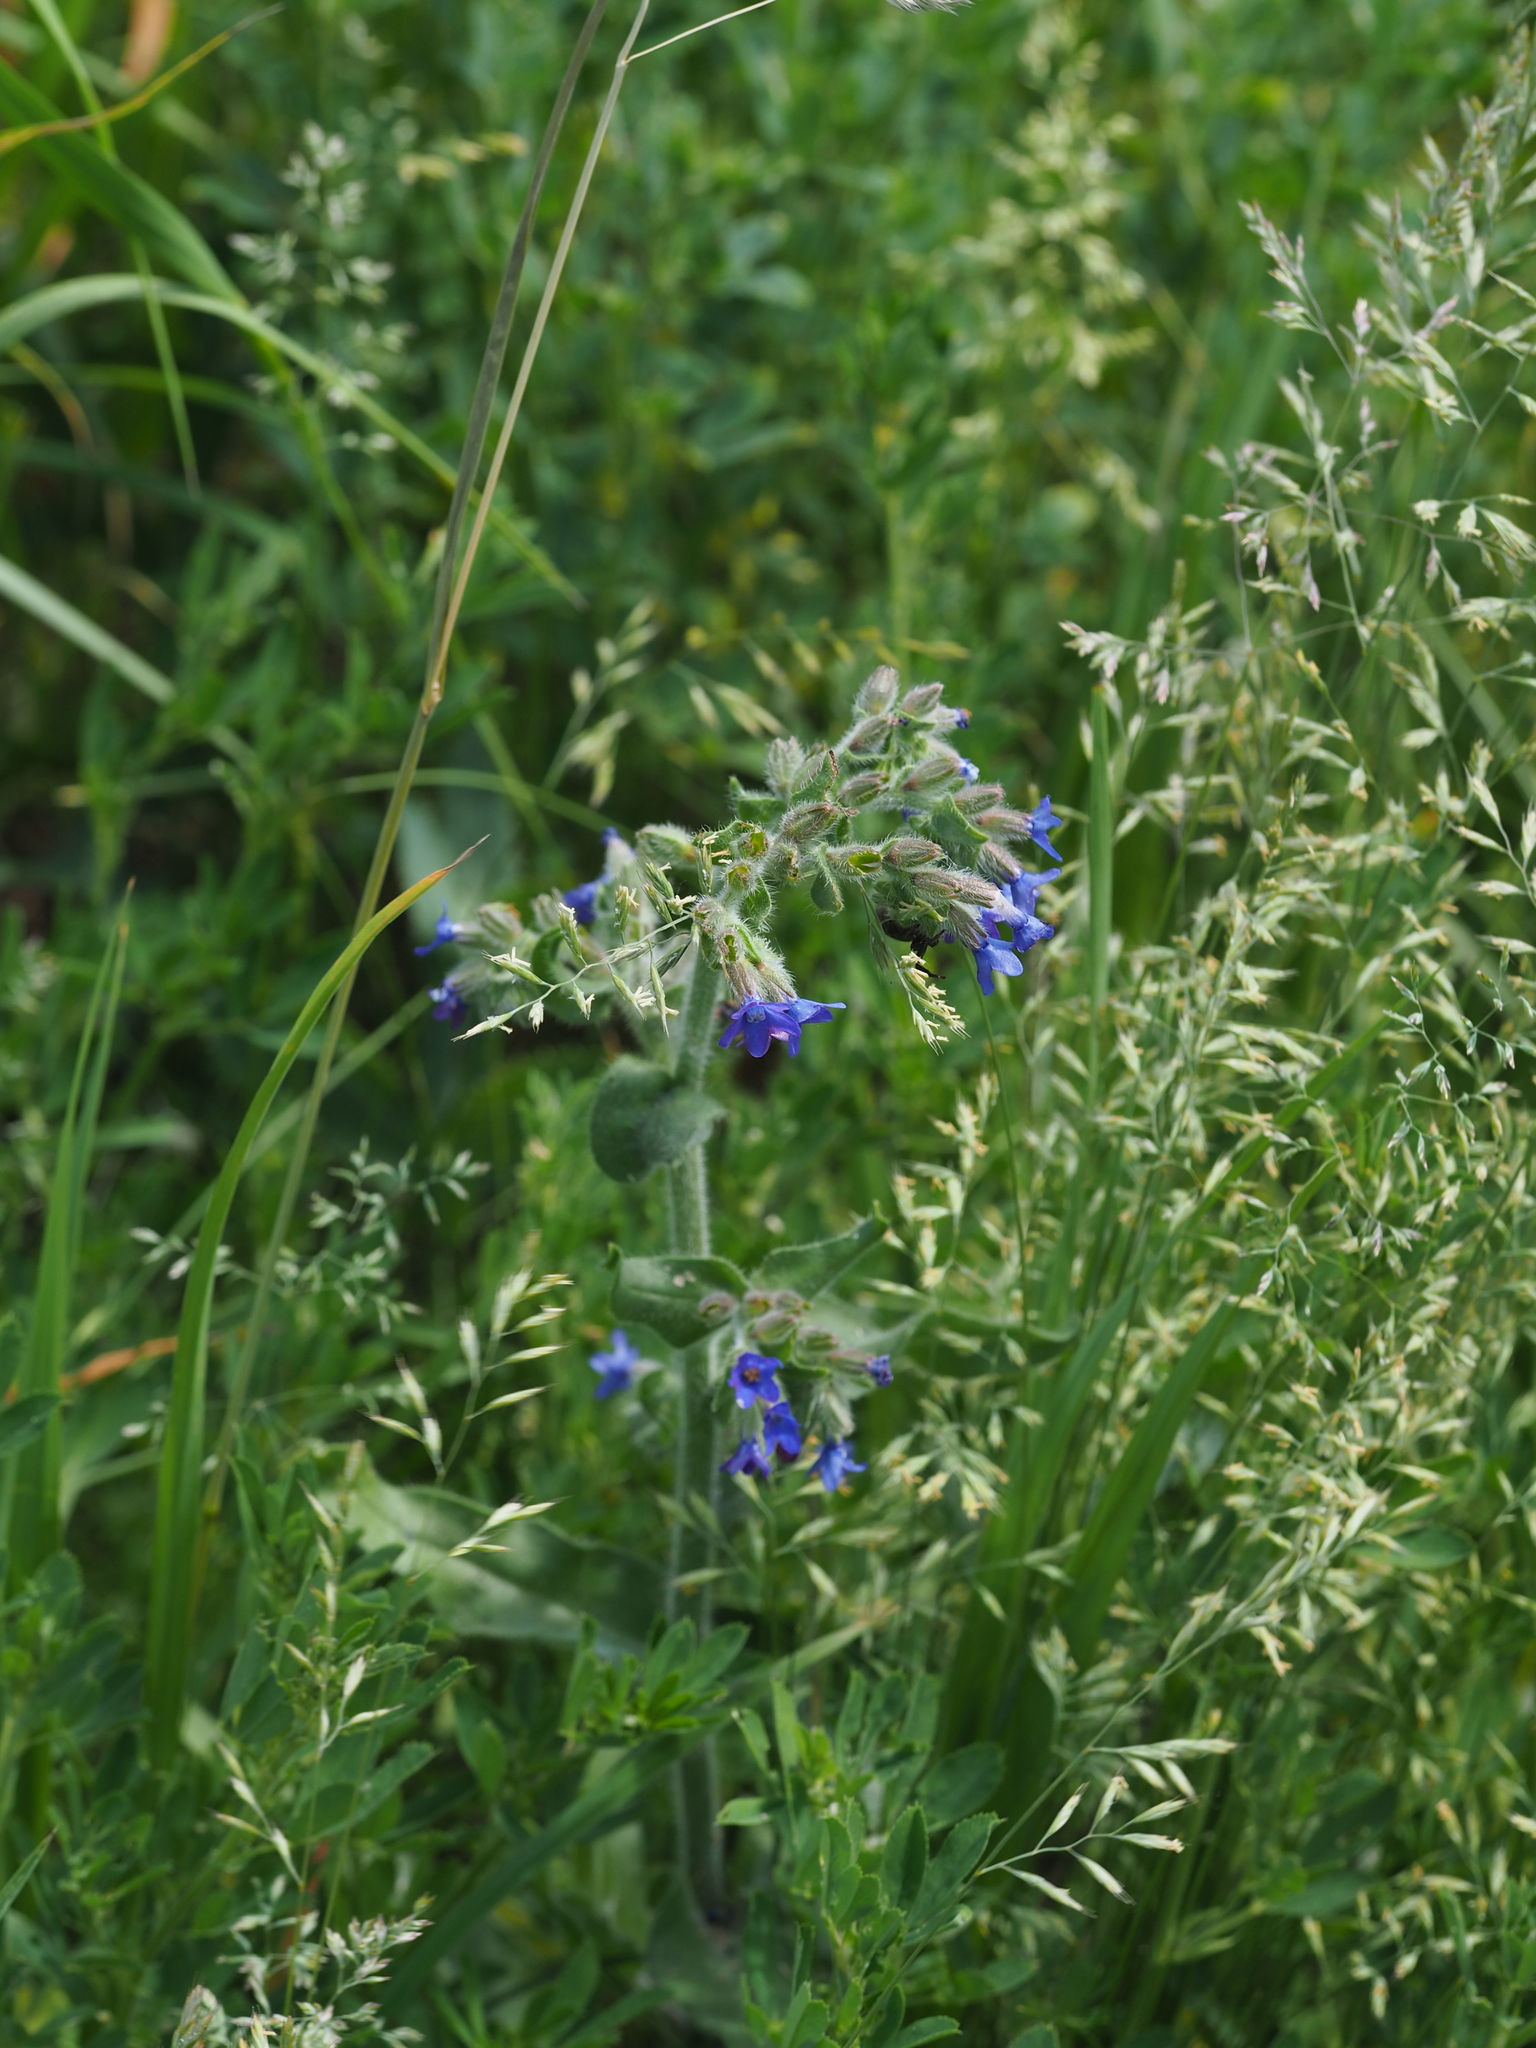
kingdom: Plantae
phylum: Tracheophyta
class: Magnoliopsida
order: Boraginales
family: Boraginaceae
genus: Anchusa
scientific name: Anchusa officinalis
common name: Alkanet
